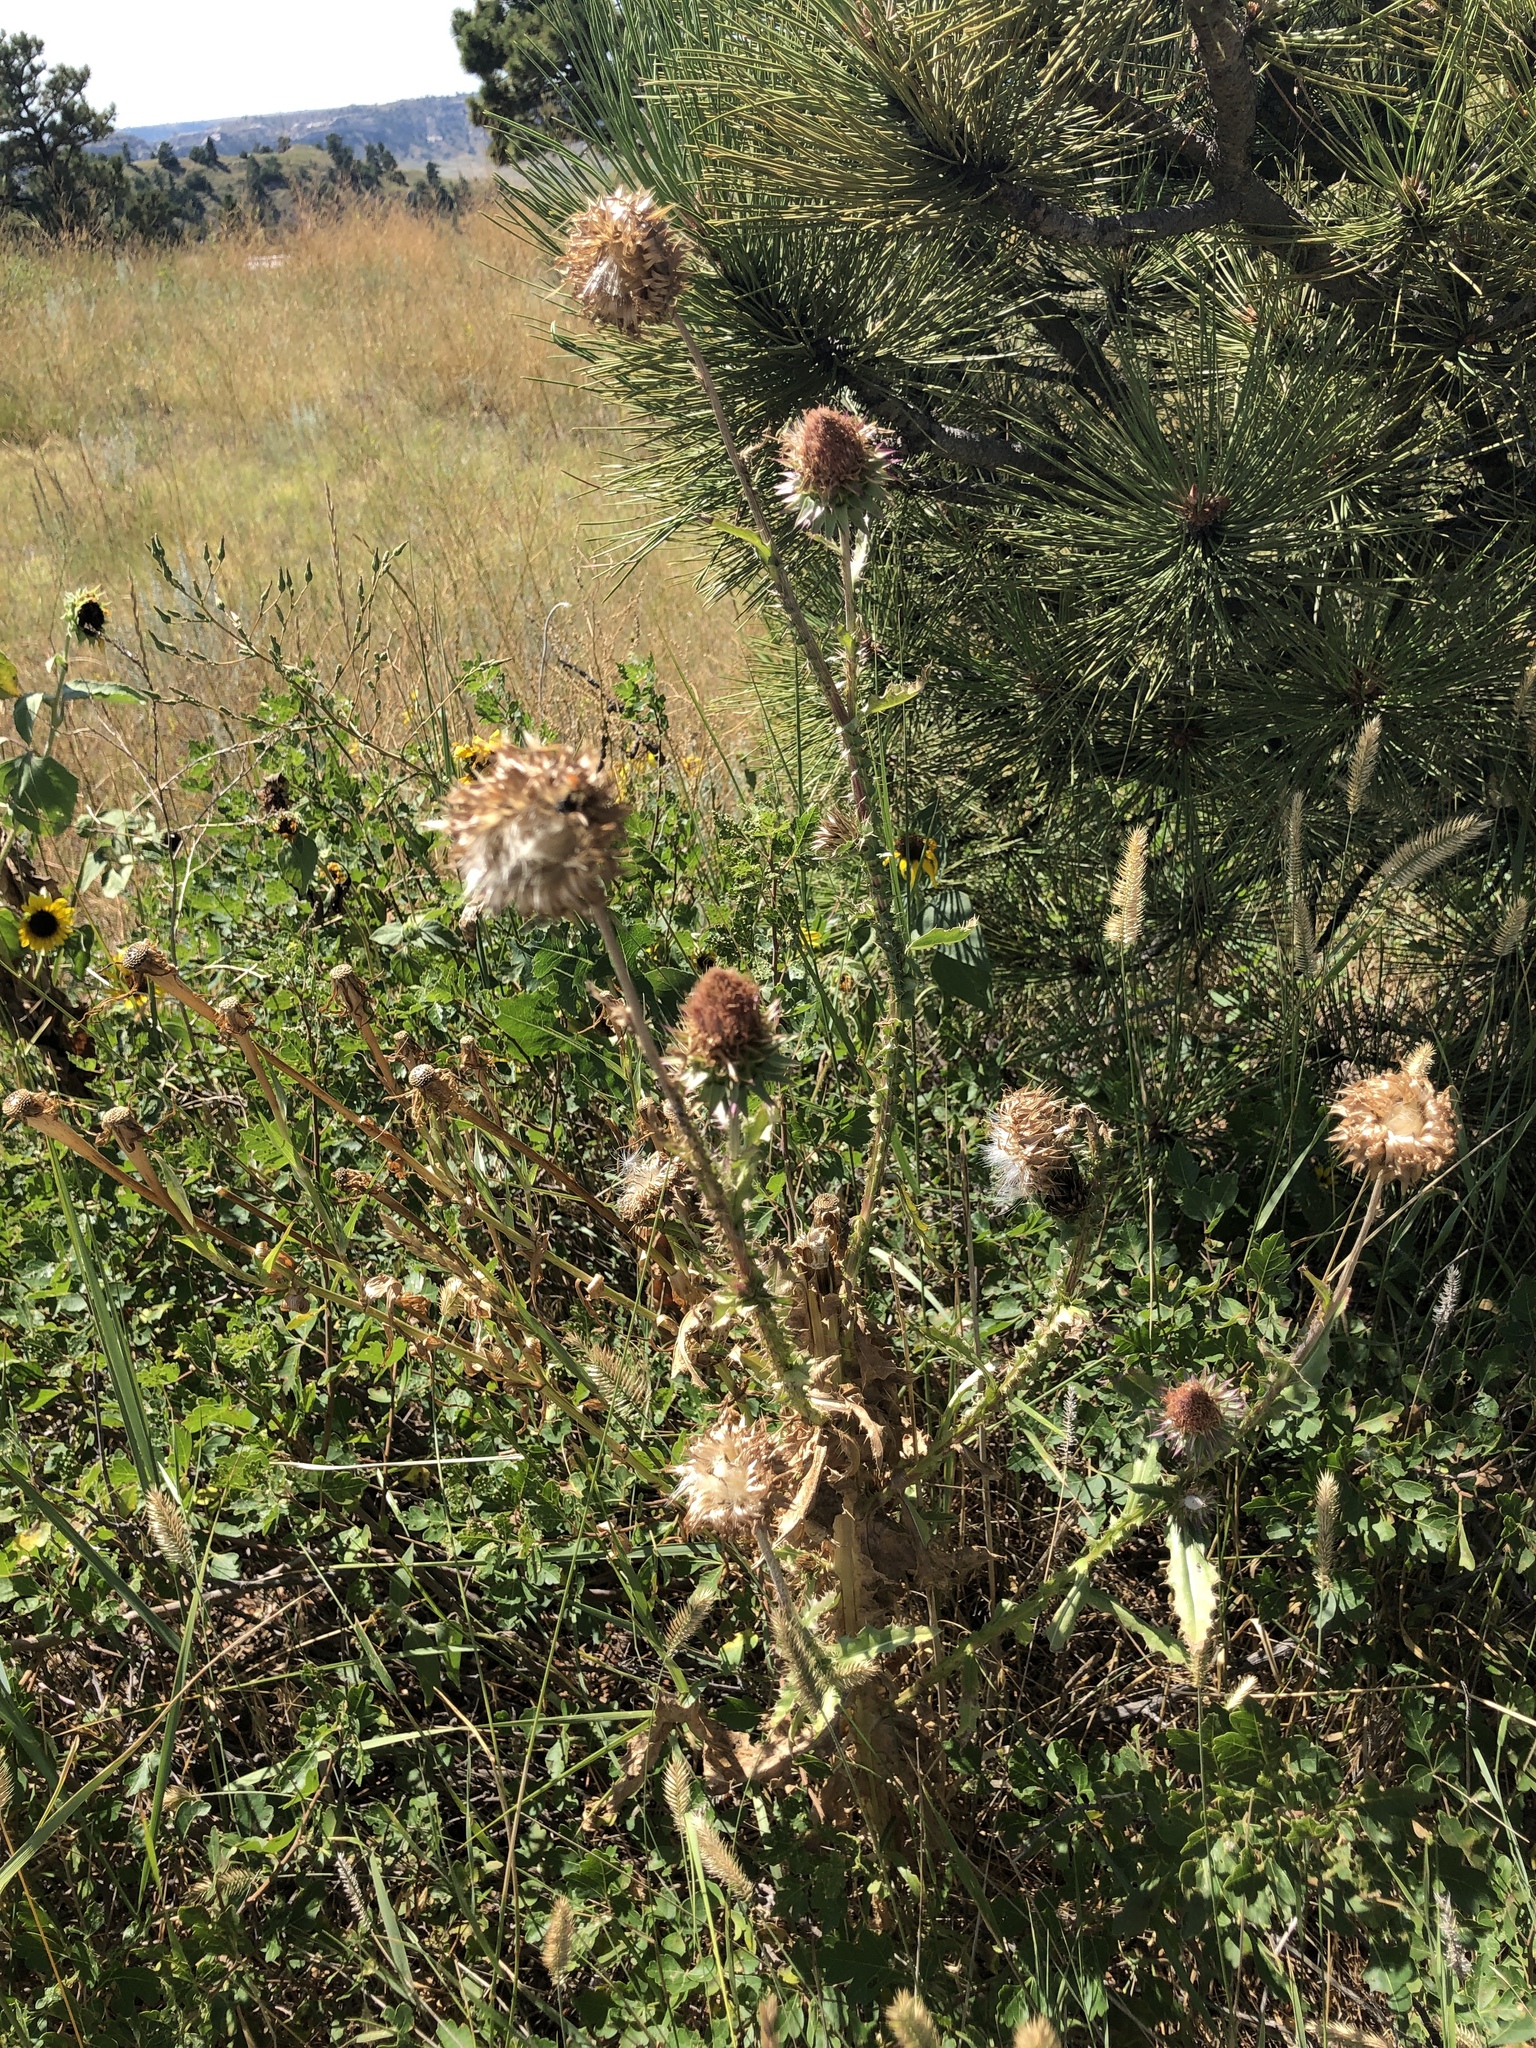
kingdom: Plantae
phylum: Tracheophyta
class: Magnoliopsida
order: Asterales
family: Asteraceae
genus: Carduus
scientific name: Carduus nutans
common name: Musk thistle
